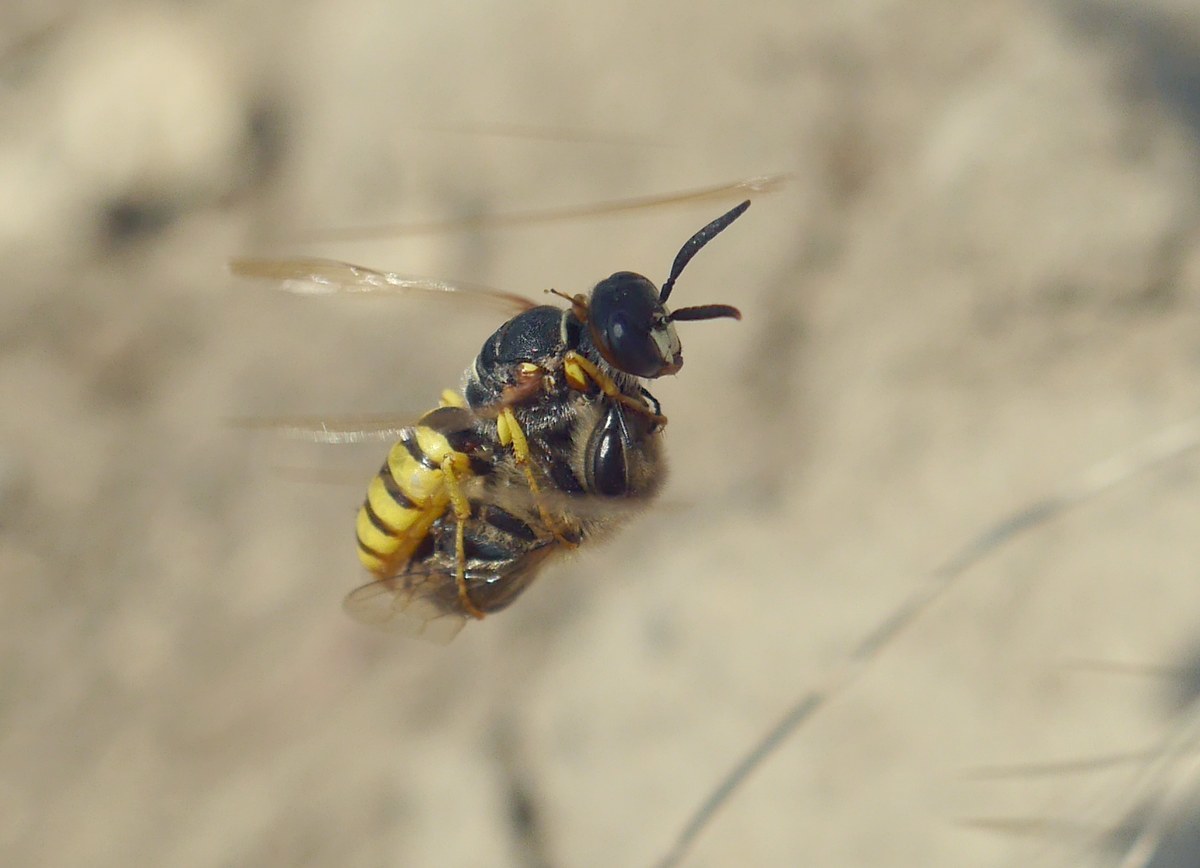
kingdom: Animalia
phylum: Arthropoda
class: Insecta
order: Hymenoptera
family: Crabronidae
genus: Philanthus
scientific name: Philanthus triangulum
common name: Bee wolf
